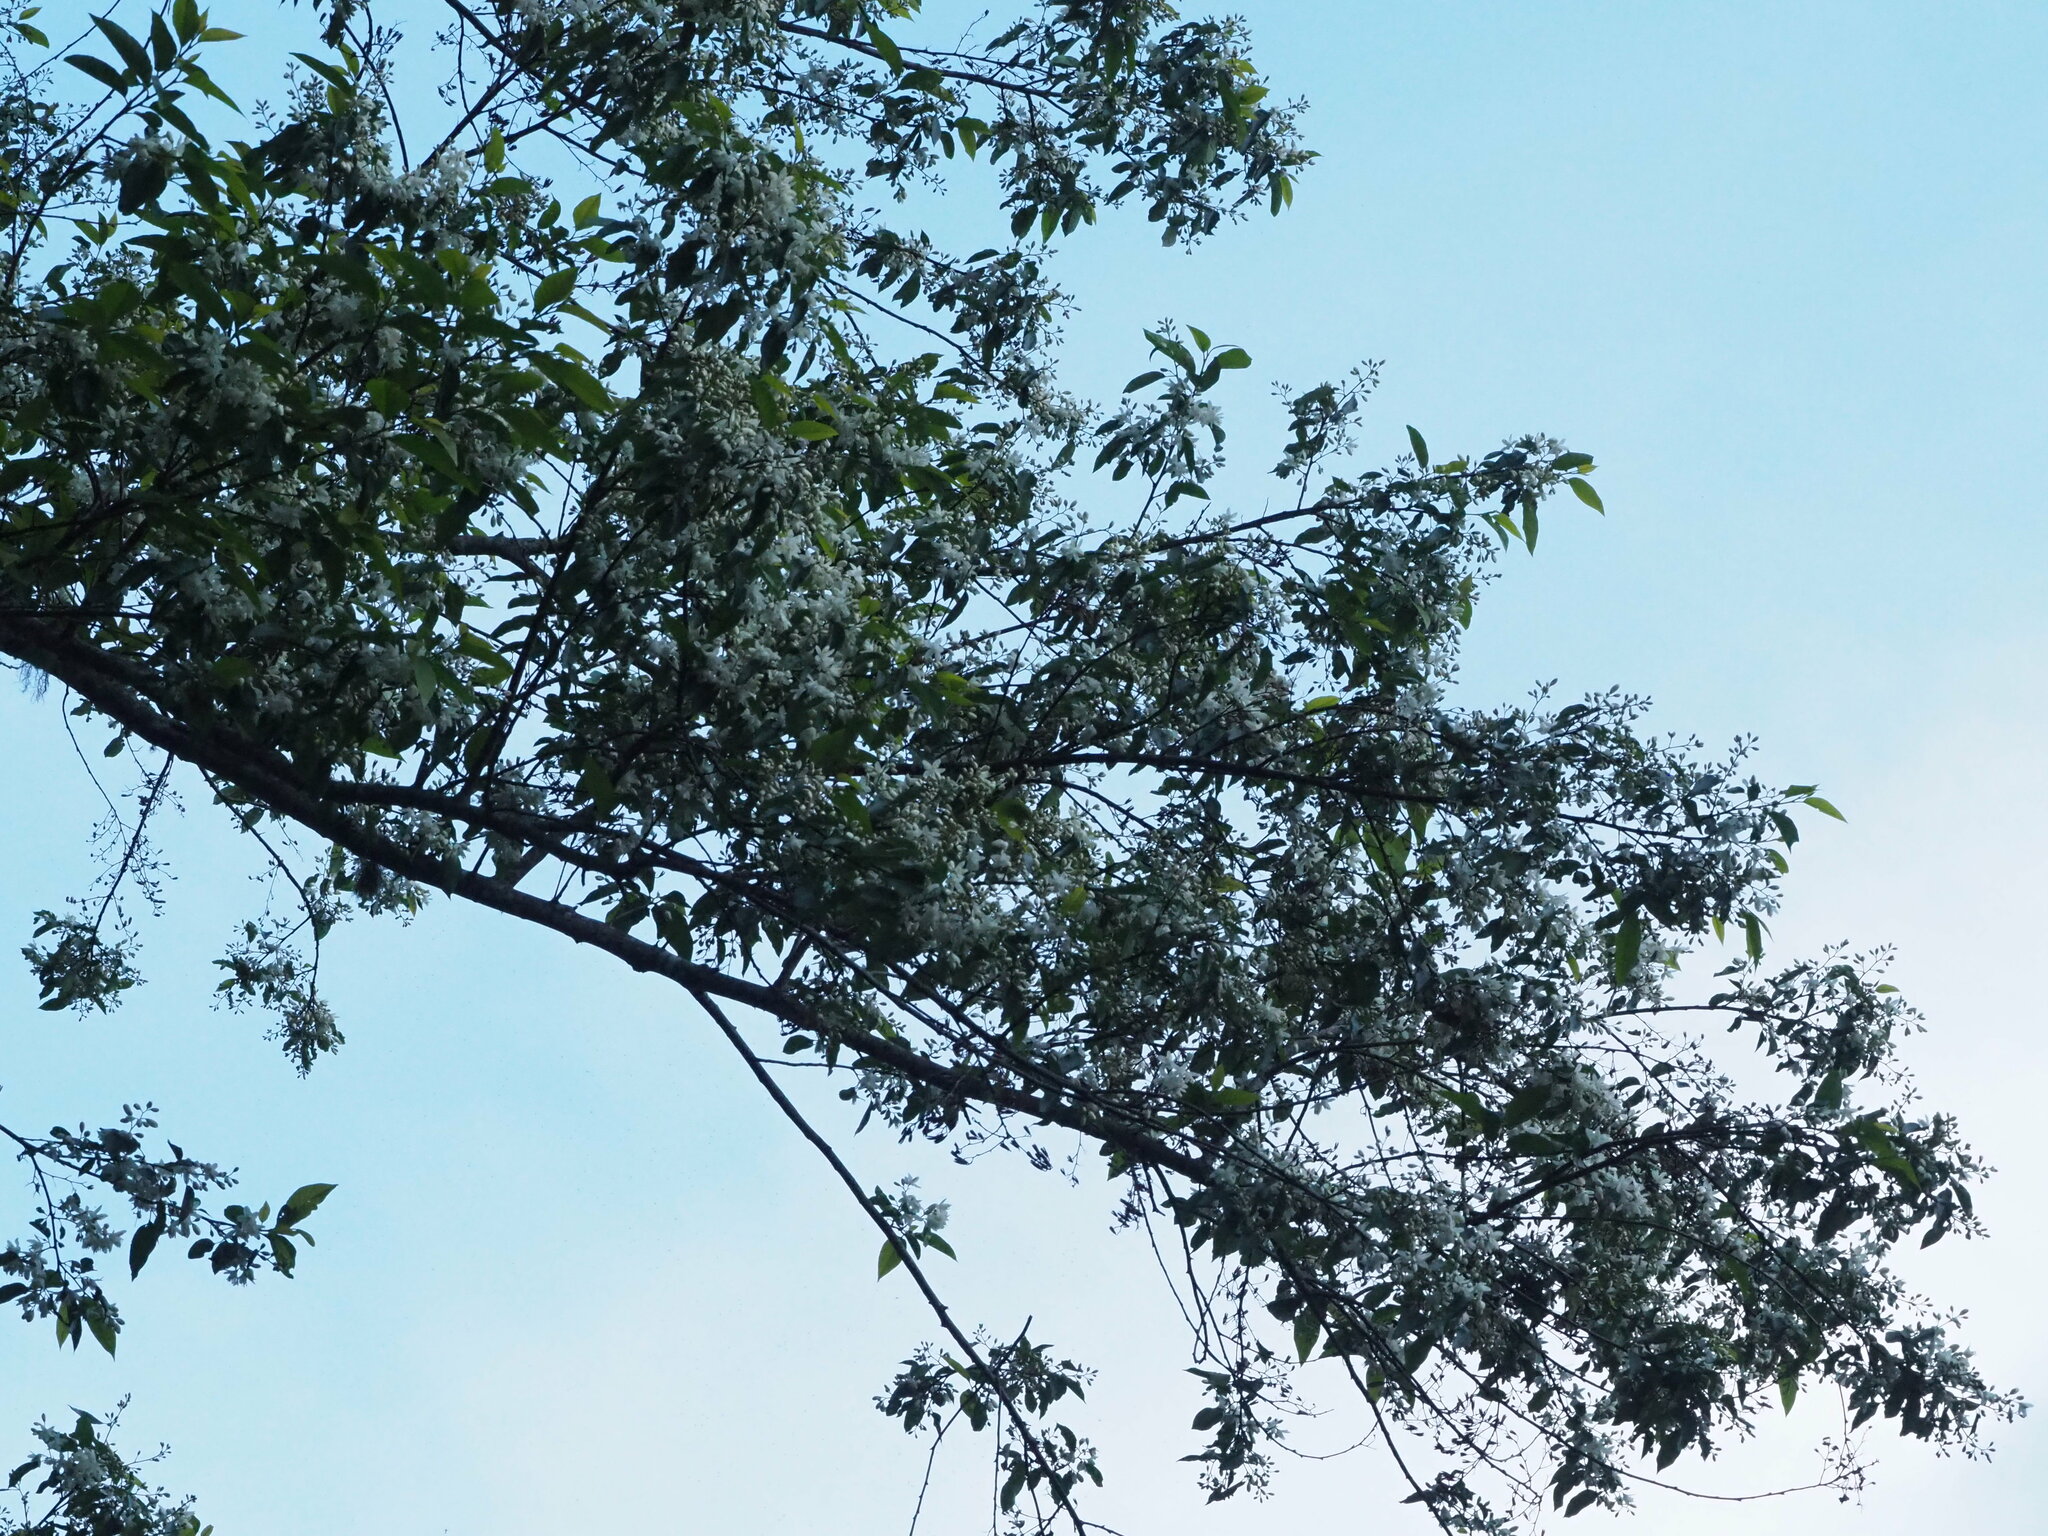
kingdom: Plantae
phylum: Tracheophyta
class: Magnoliopsida
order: Ericales
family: Styracaceae
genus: Alniphyllum
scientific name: Alniphyllum pterospermum
